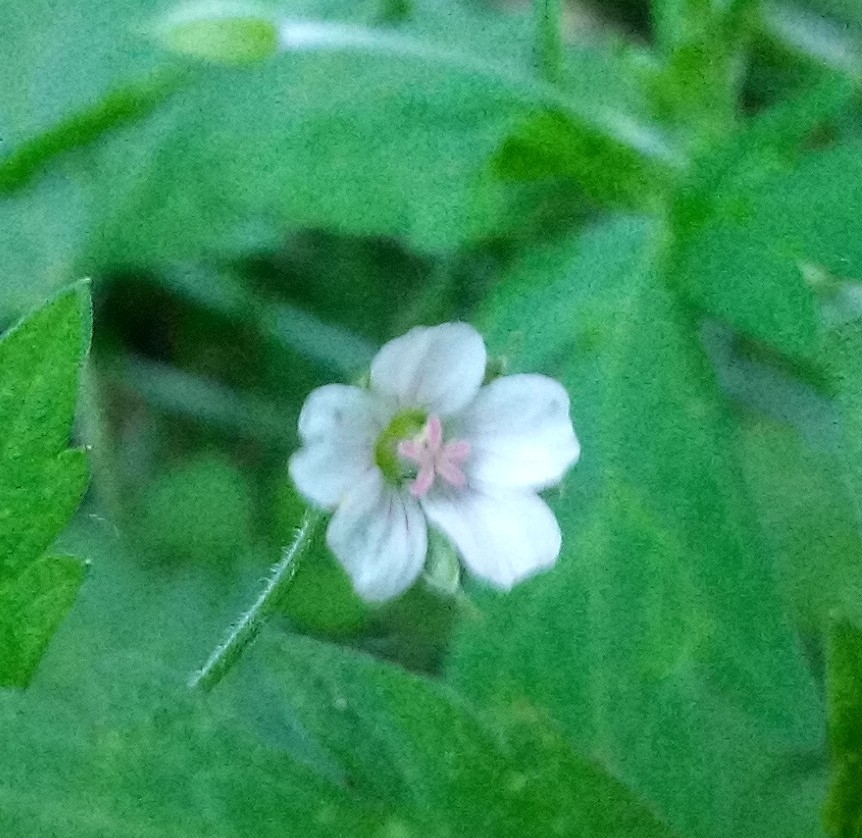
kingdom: Plantae
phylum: Tracheophyta
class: Magnoliopsida
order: Geraniales
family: Geraniaceae
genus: Geranium
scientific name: Geranium sibiricum
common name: Siberian crane's-bill
